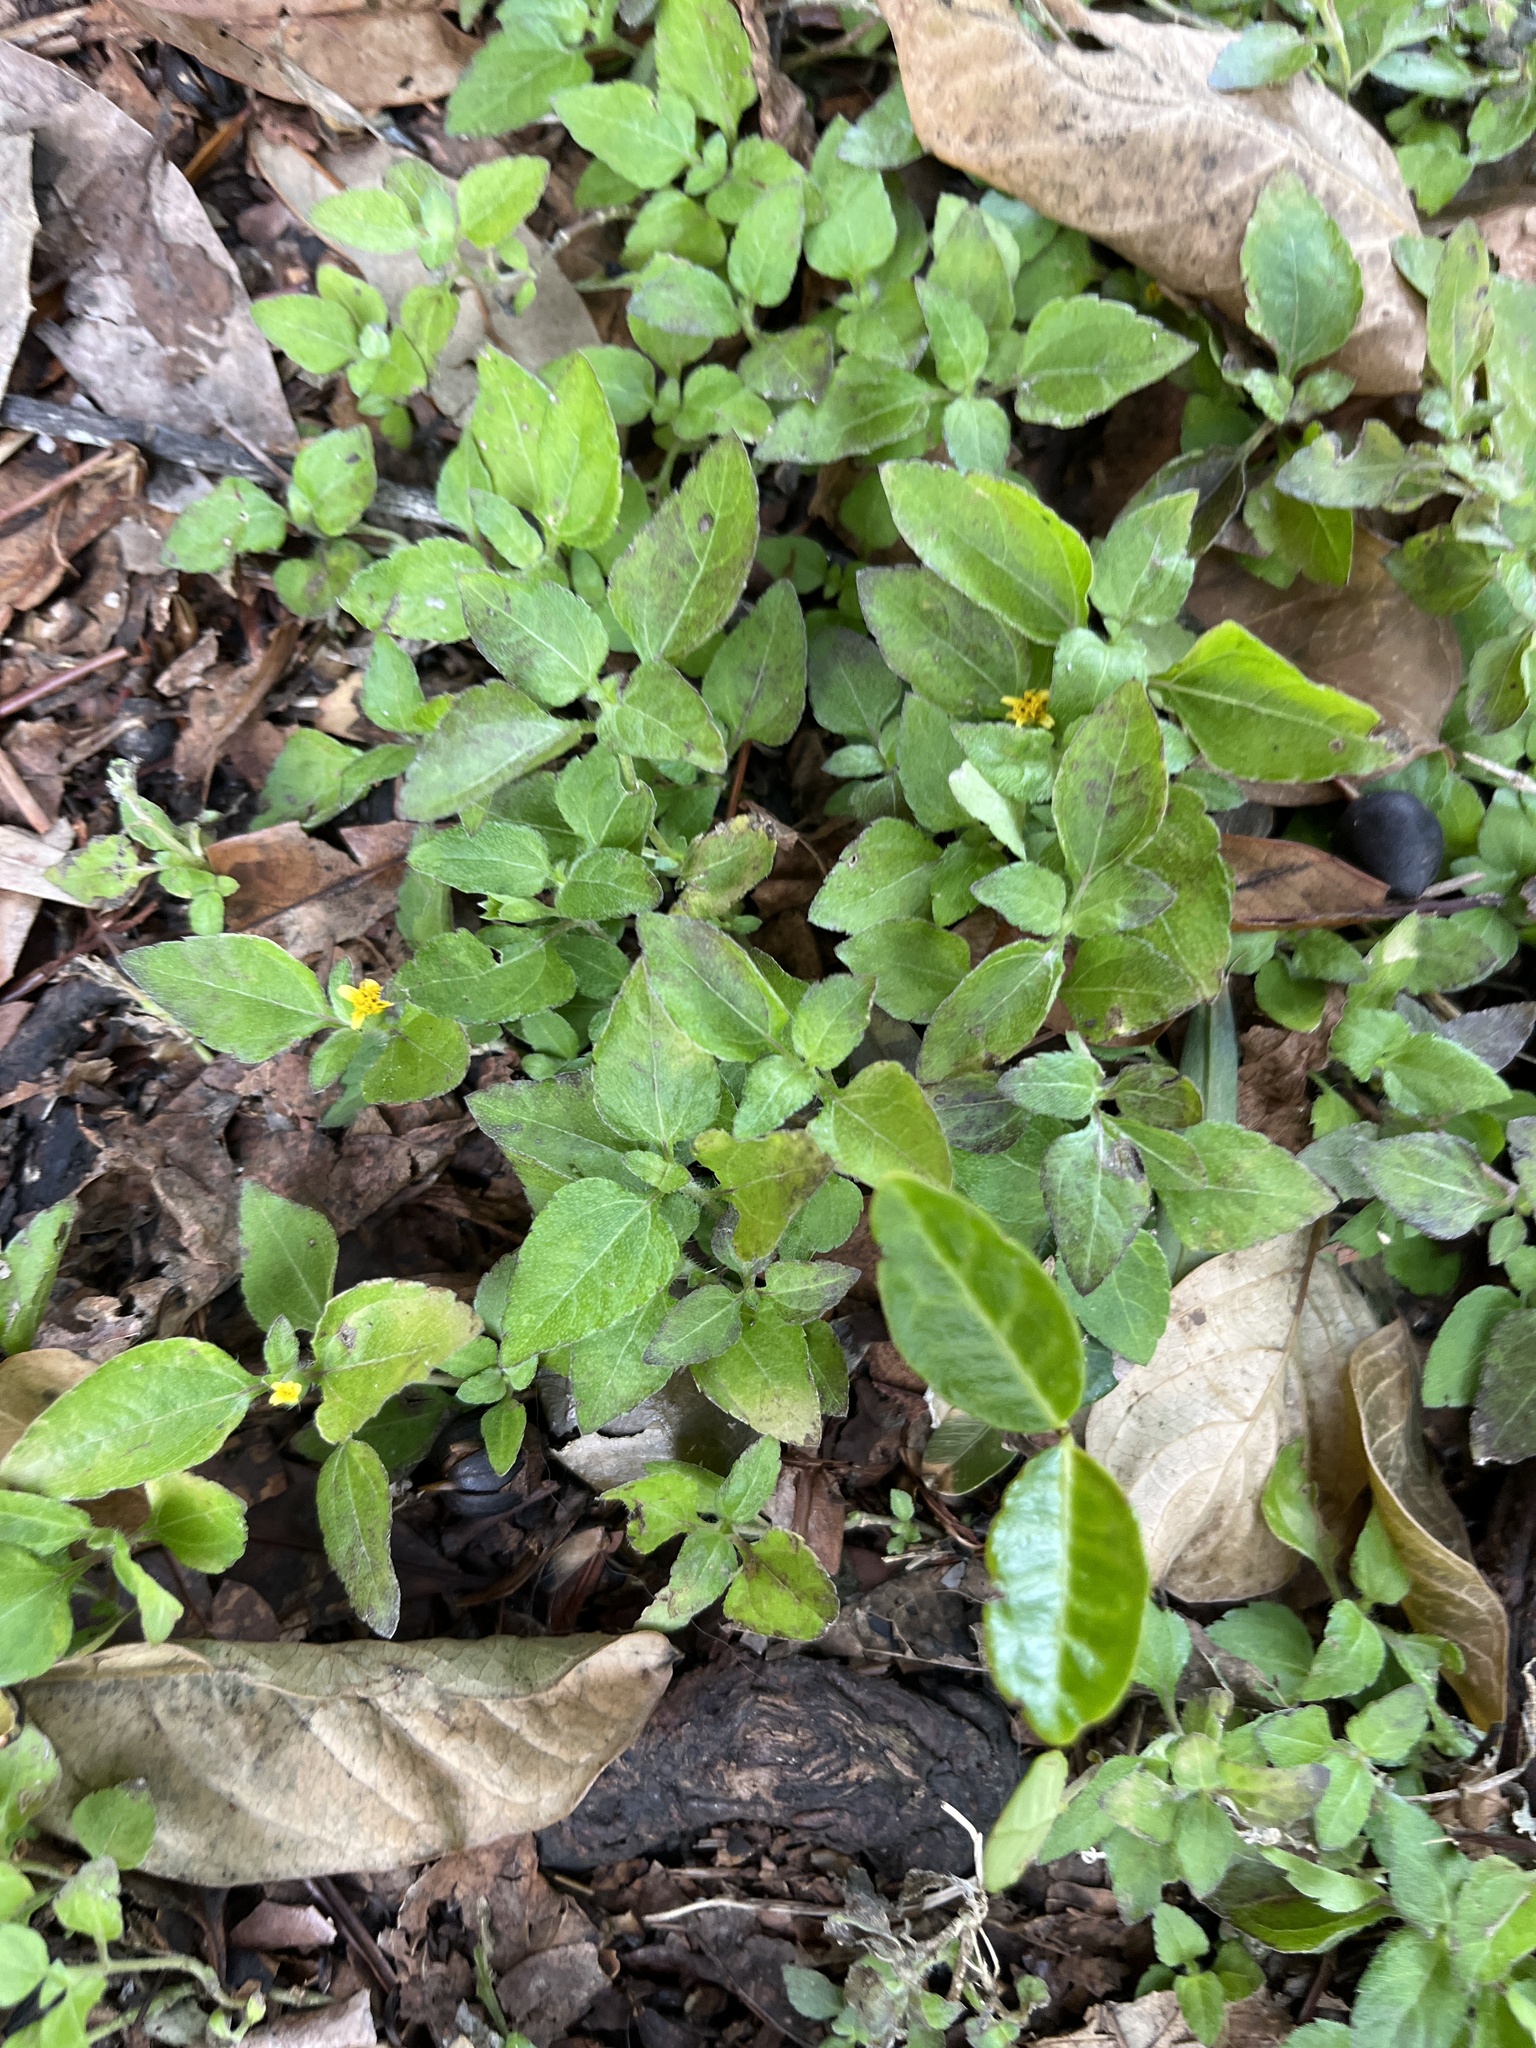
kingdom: Plantae
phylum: Tracheophyta
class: Magnoliopsida
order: Asterales
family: Asteraceae
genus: Calyptocarpus
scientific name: Calyptocarpus vialis
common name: Straggler daisy
